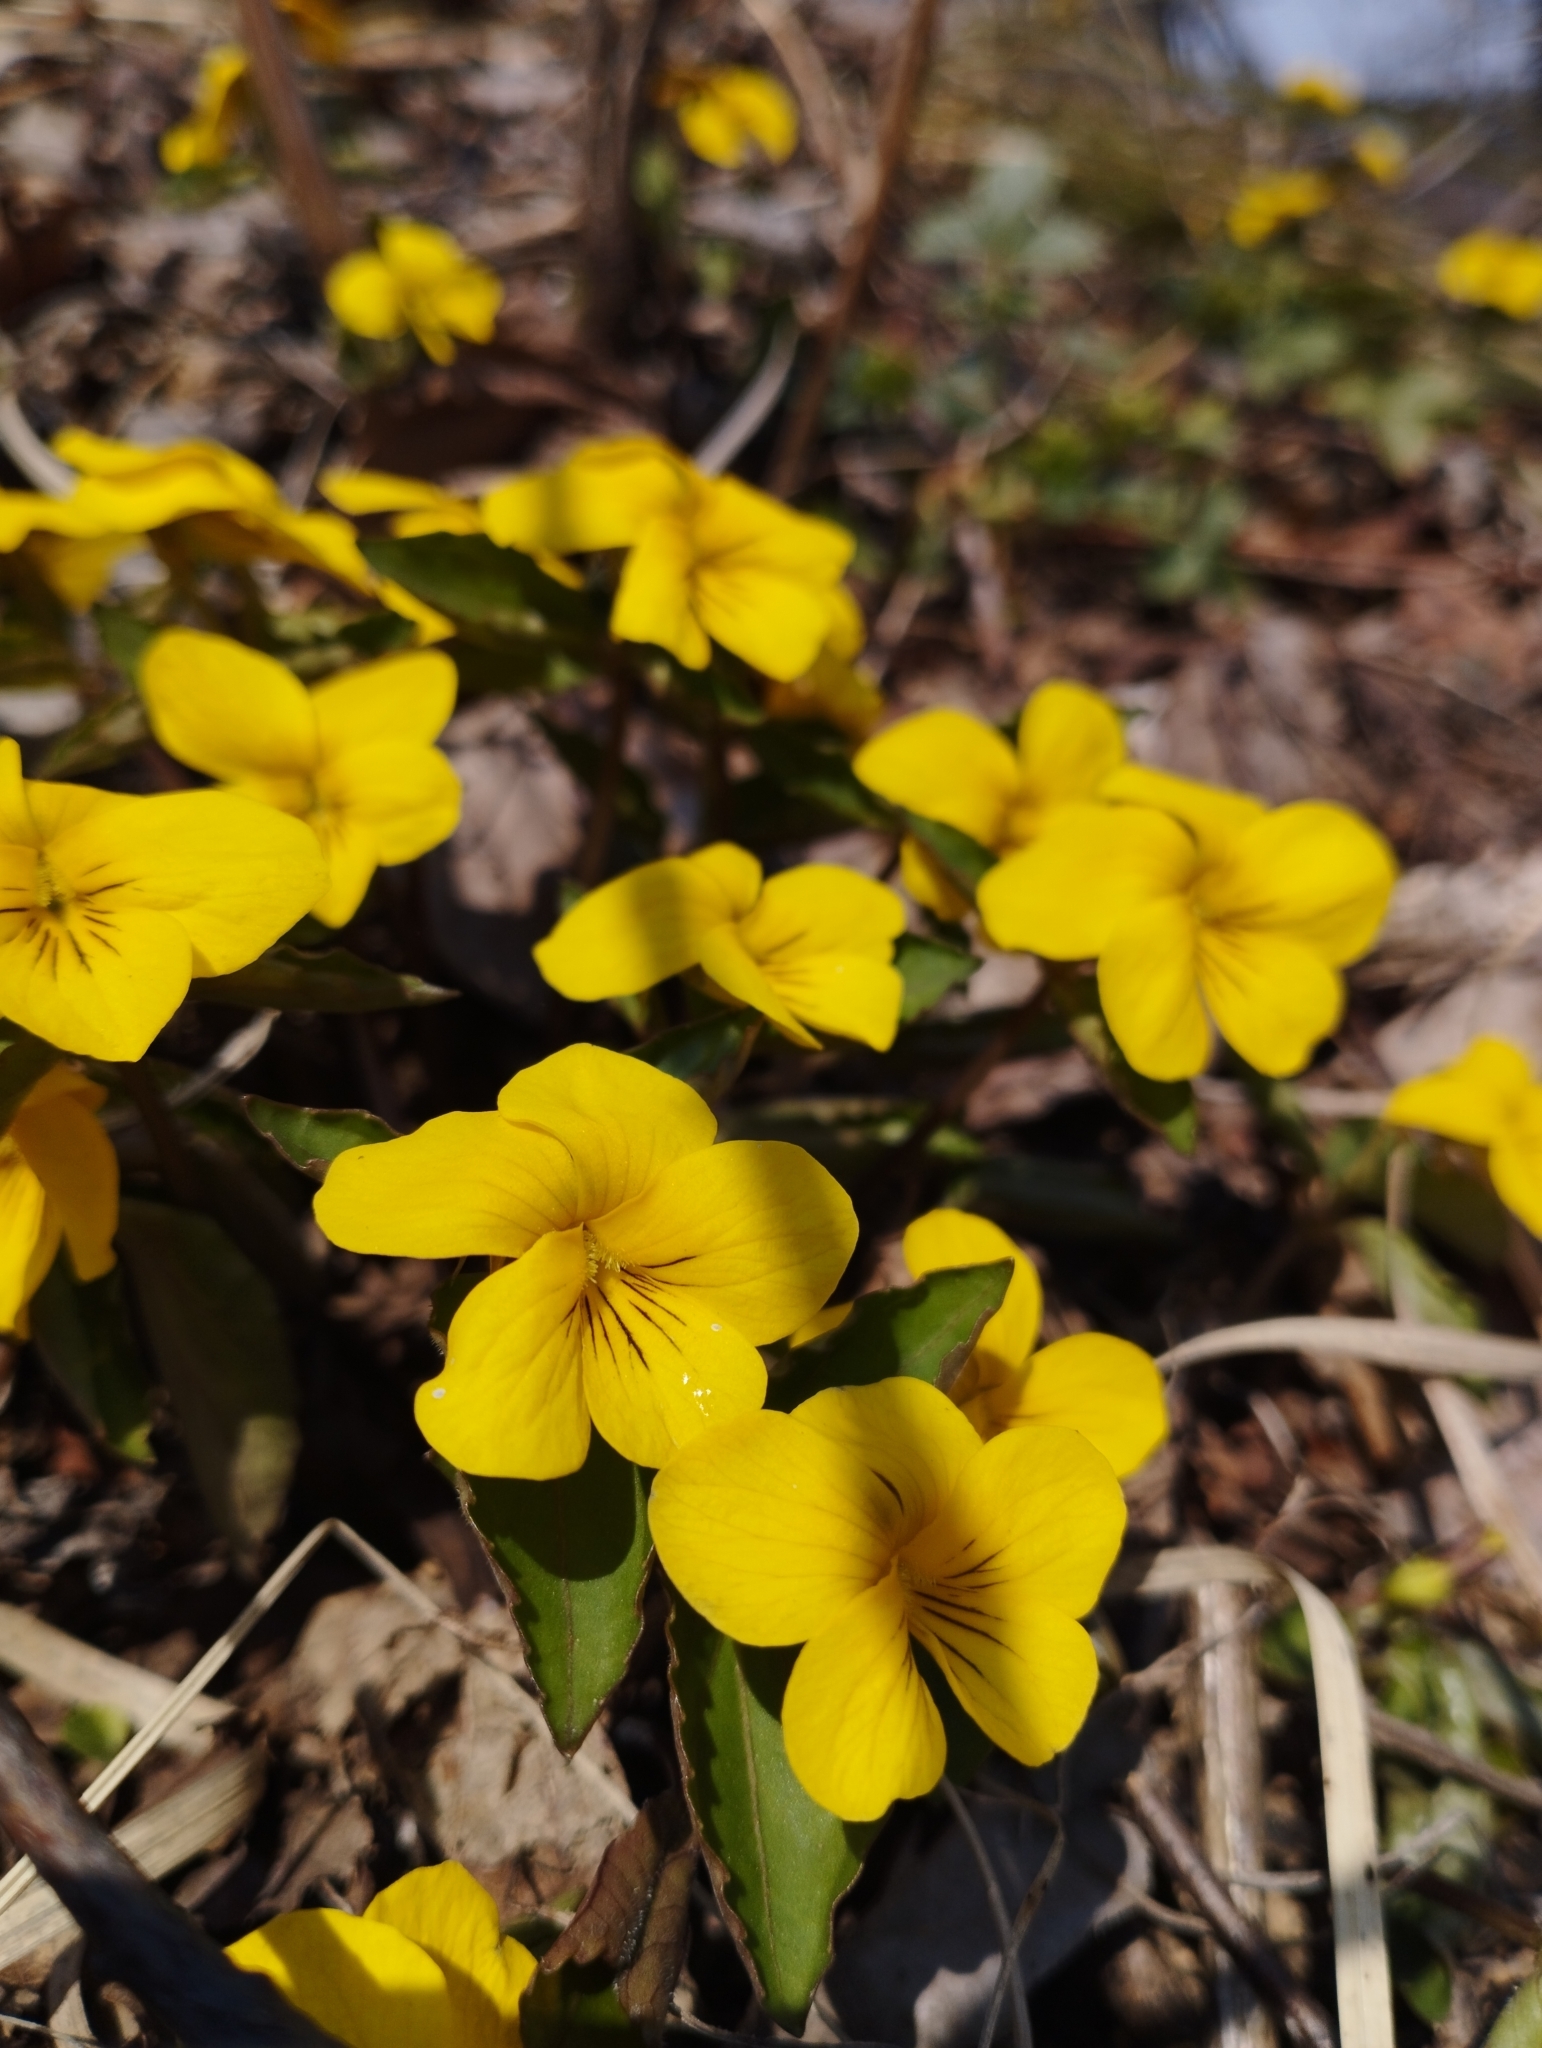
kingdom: Plantae
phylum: Tracheophyta
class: Magnoliopsida
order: Malpighiales
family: Violaceae
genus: Viola
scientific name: Viola orientalis
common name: Golden violet
